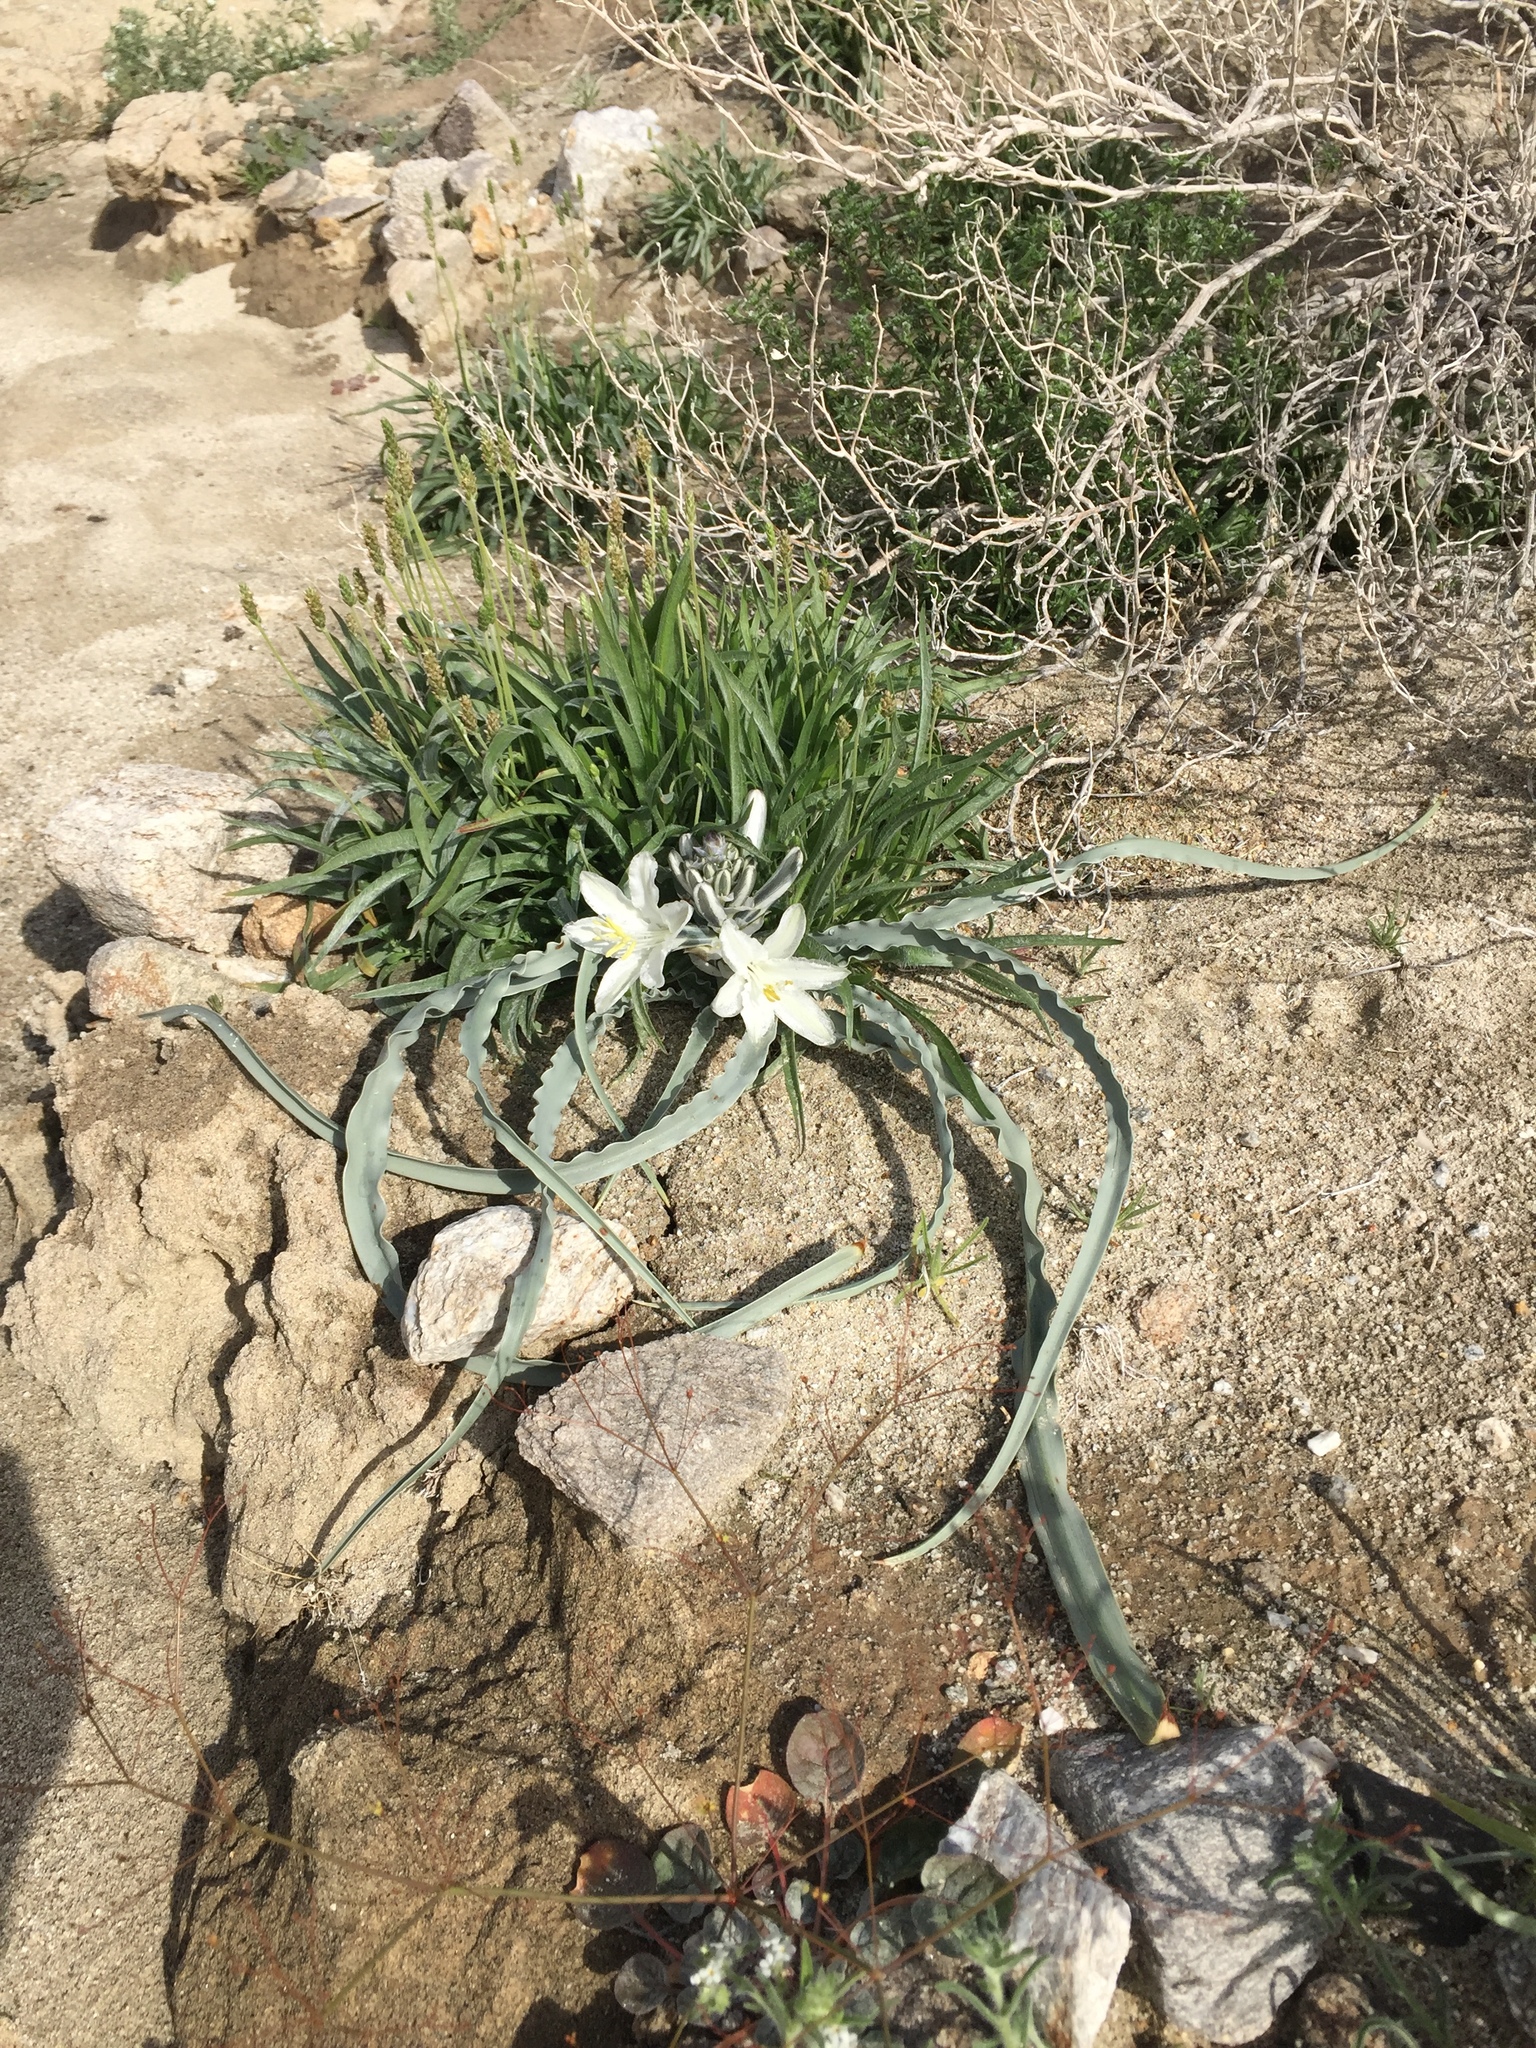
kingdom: Plantae
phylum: Tracheophyta
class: Liliopsida
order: Asparagales
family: Asparagaceae
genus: Hesperocallis
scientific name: Hesperocallis undulata
